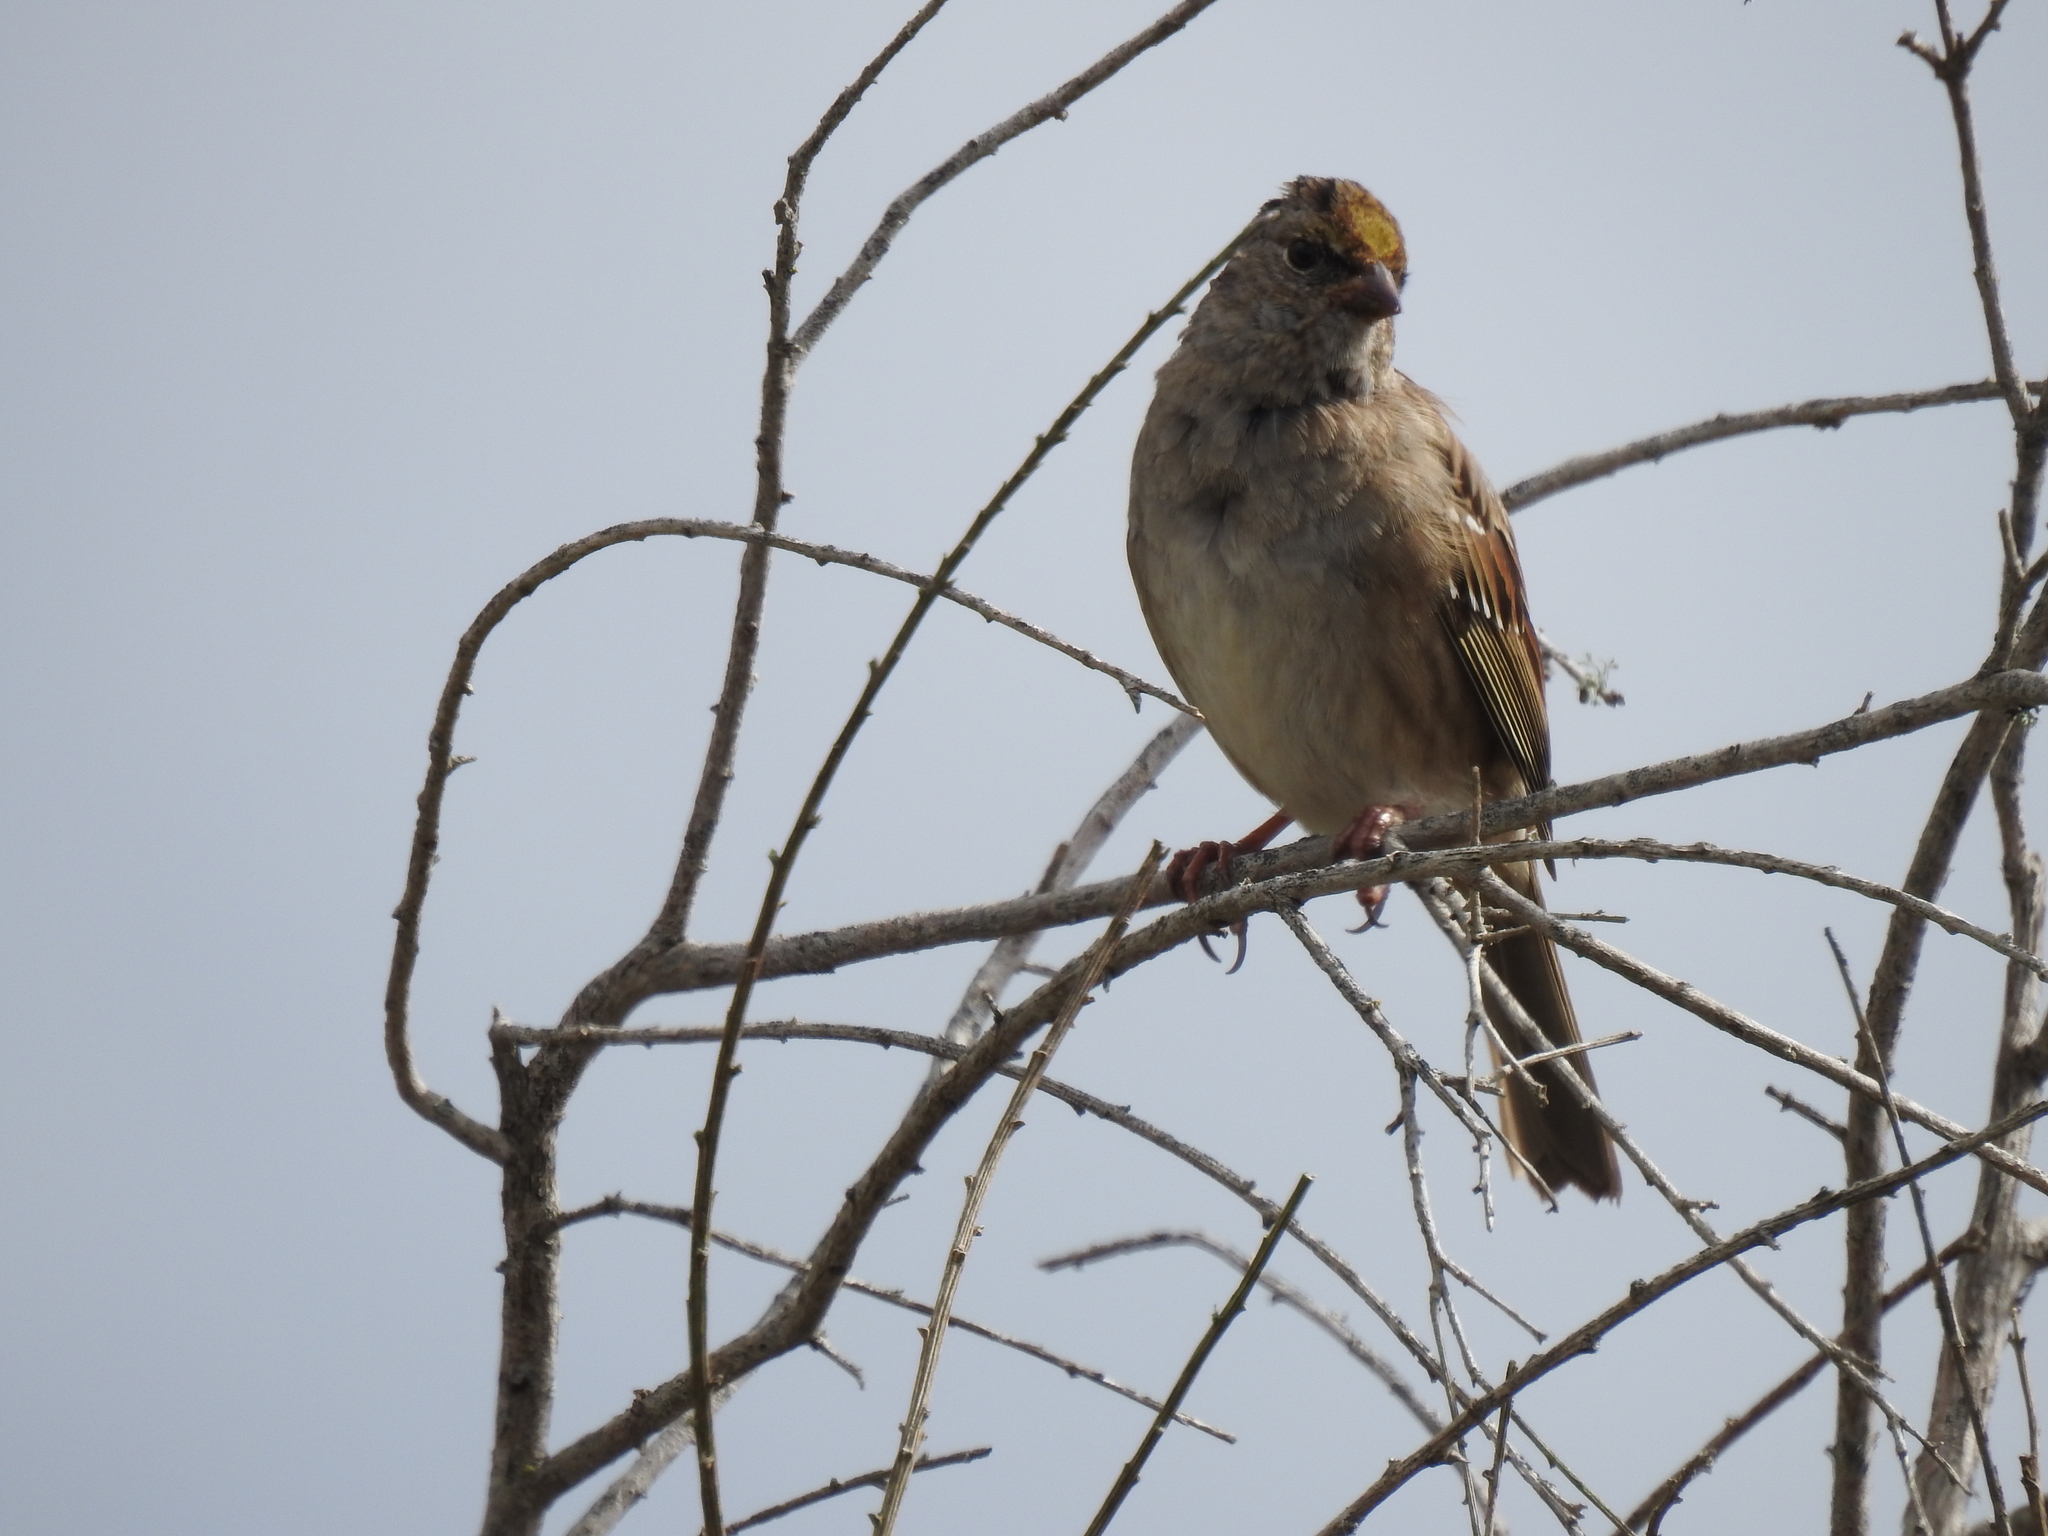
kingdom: Animalia
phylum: Chordata
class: Aves
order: Passeriformes
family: Passerellidae
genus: Zonotrichia
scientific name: Zonotrichia atricapilla
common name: Golden-crowned sparrow
